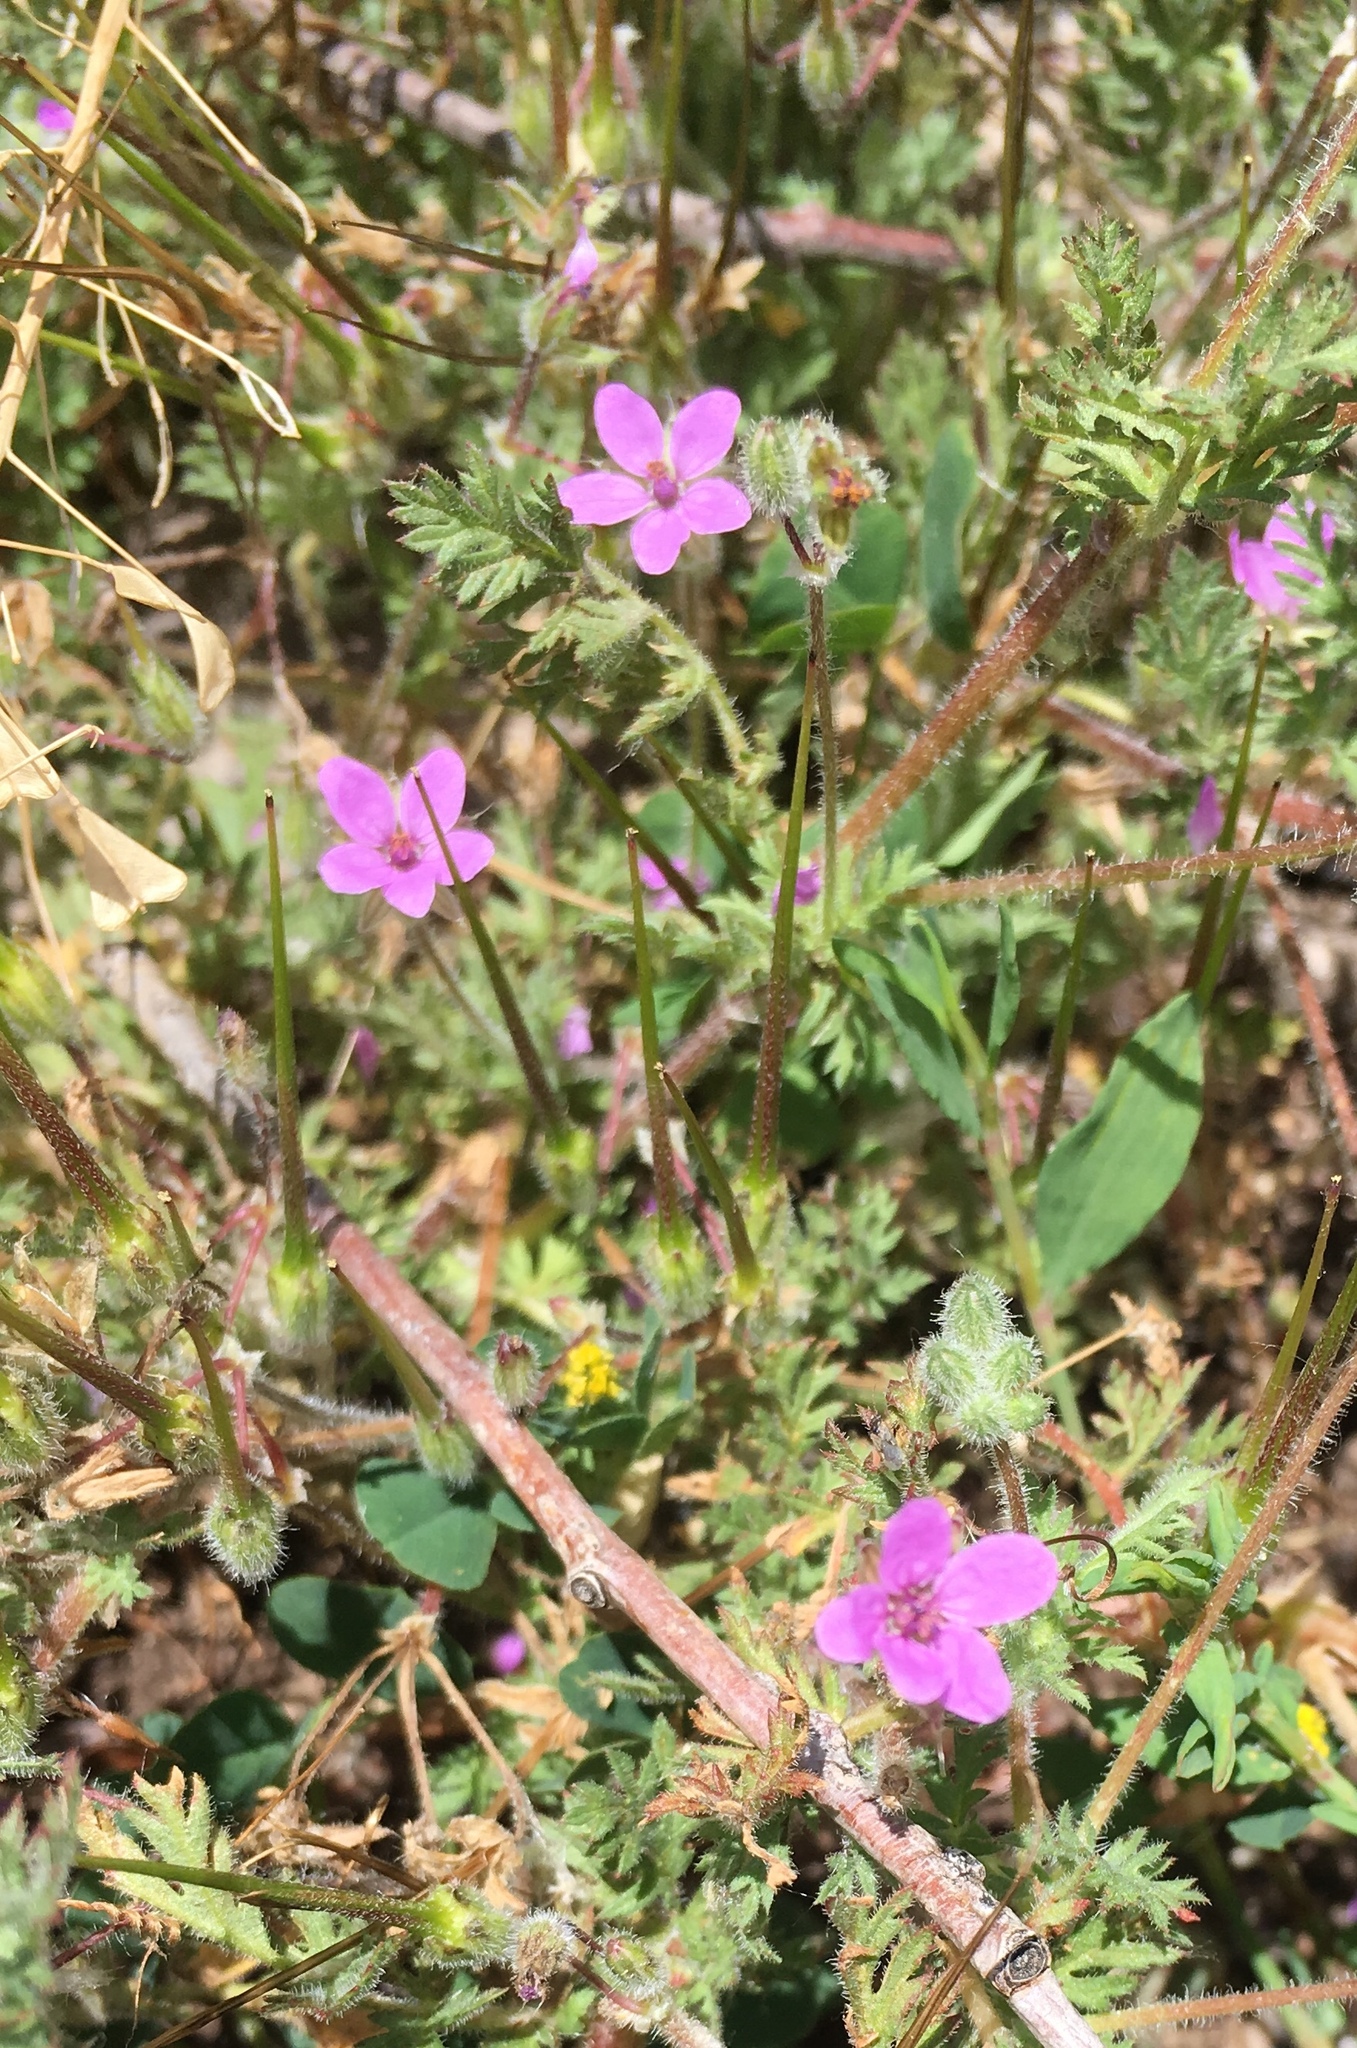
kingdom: Plantae
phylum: Tracheophyta
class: Magnoliopsida
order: Geraniales
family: Geraniaceae
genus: Erodium
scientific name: Erodium cicutarium
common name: Common stork's-bill
